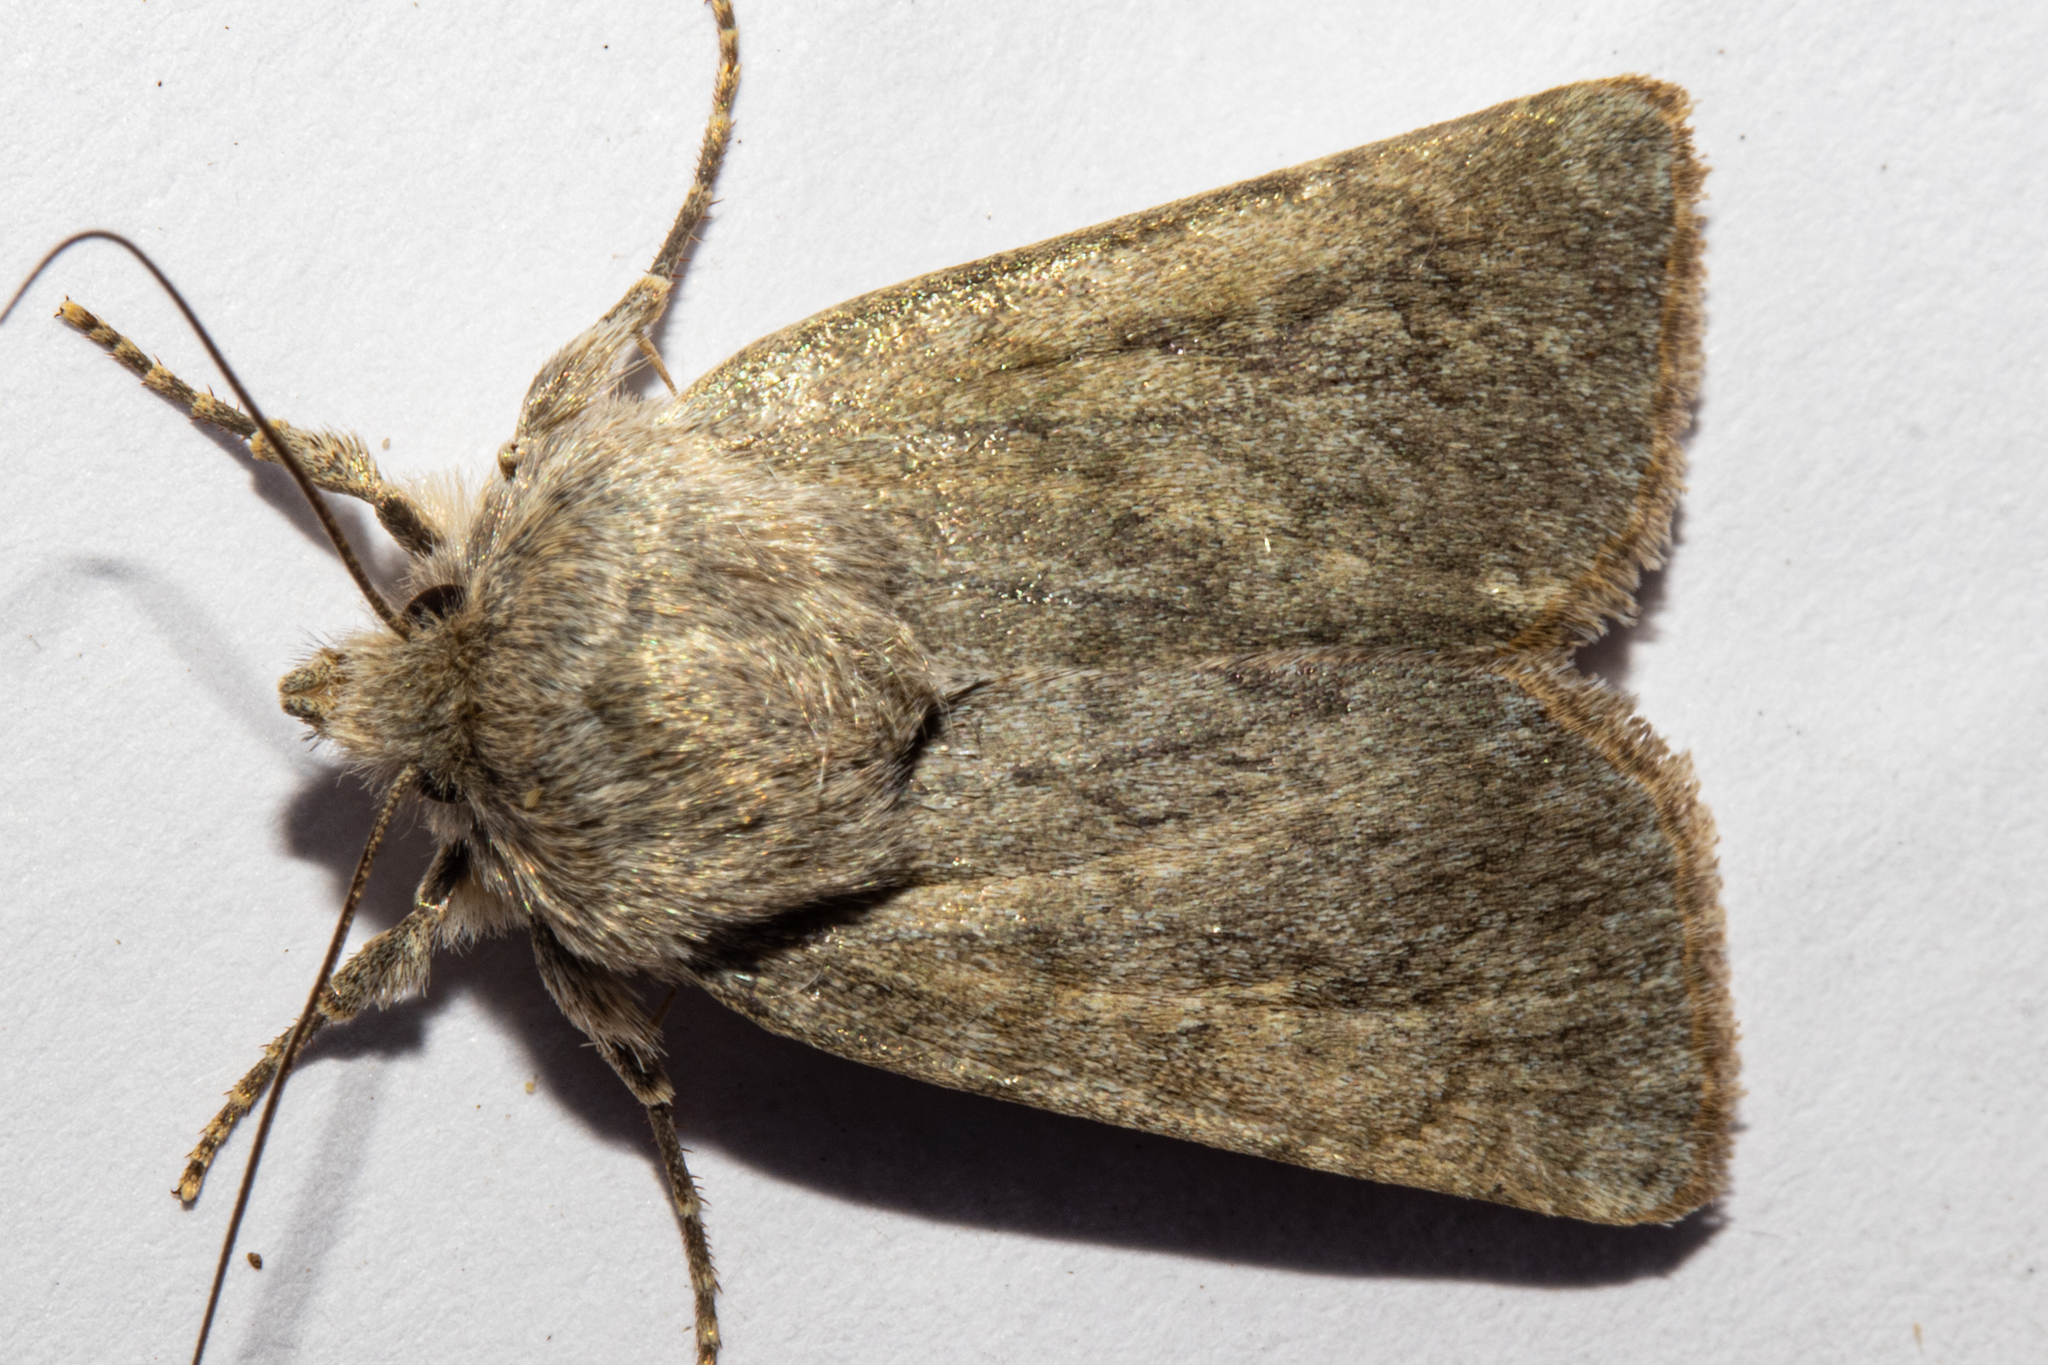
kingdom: Animalia
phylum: Arthropoda
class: Insecta
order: Lepidoptera
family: Noctuidae
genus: Physetica
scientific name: Physetica caerulea
